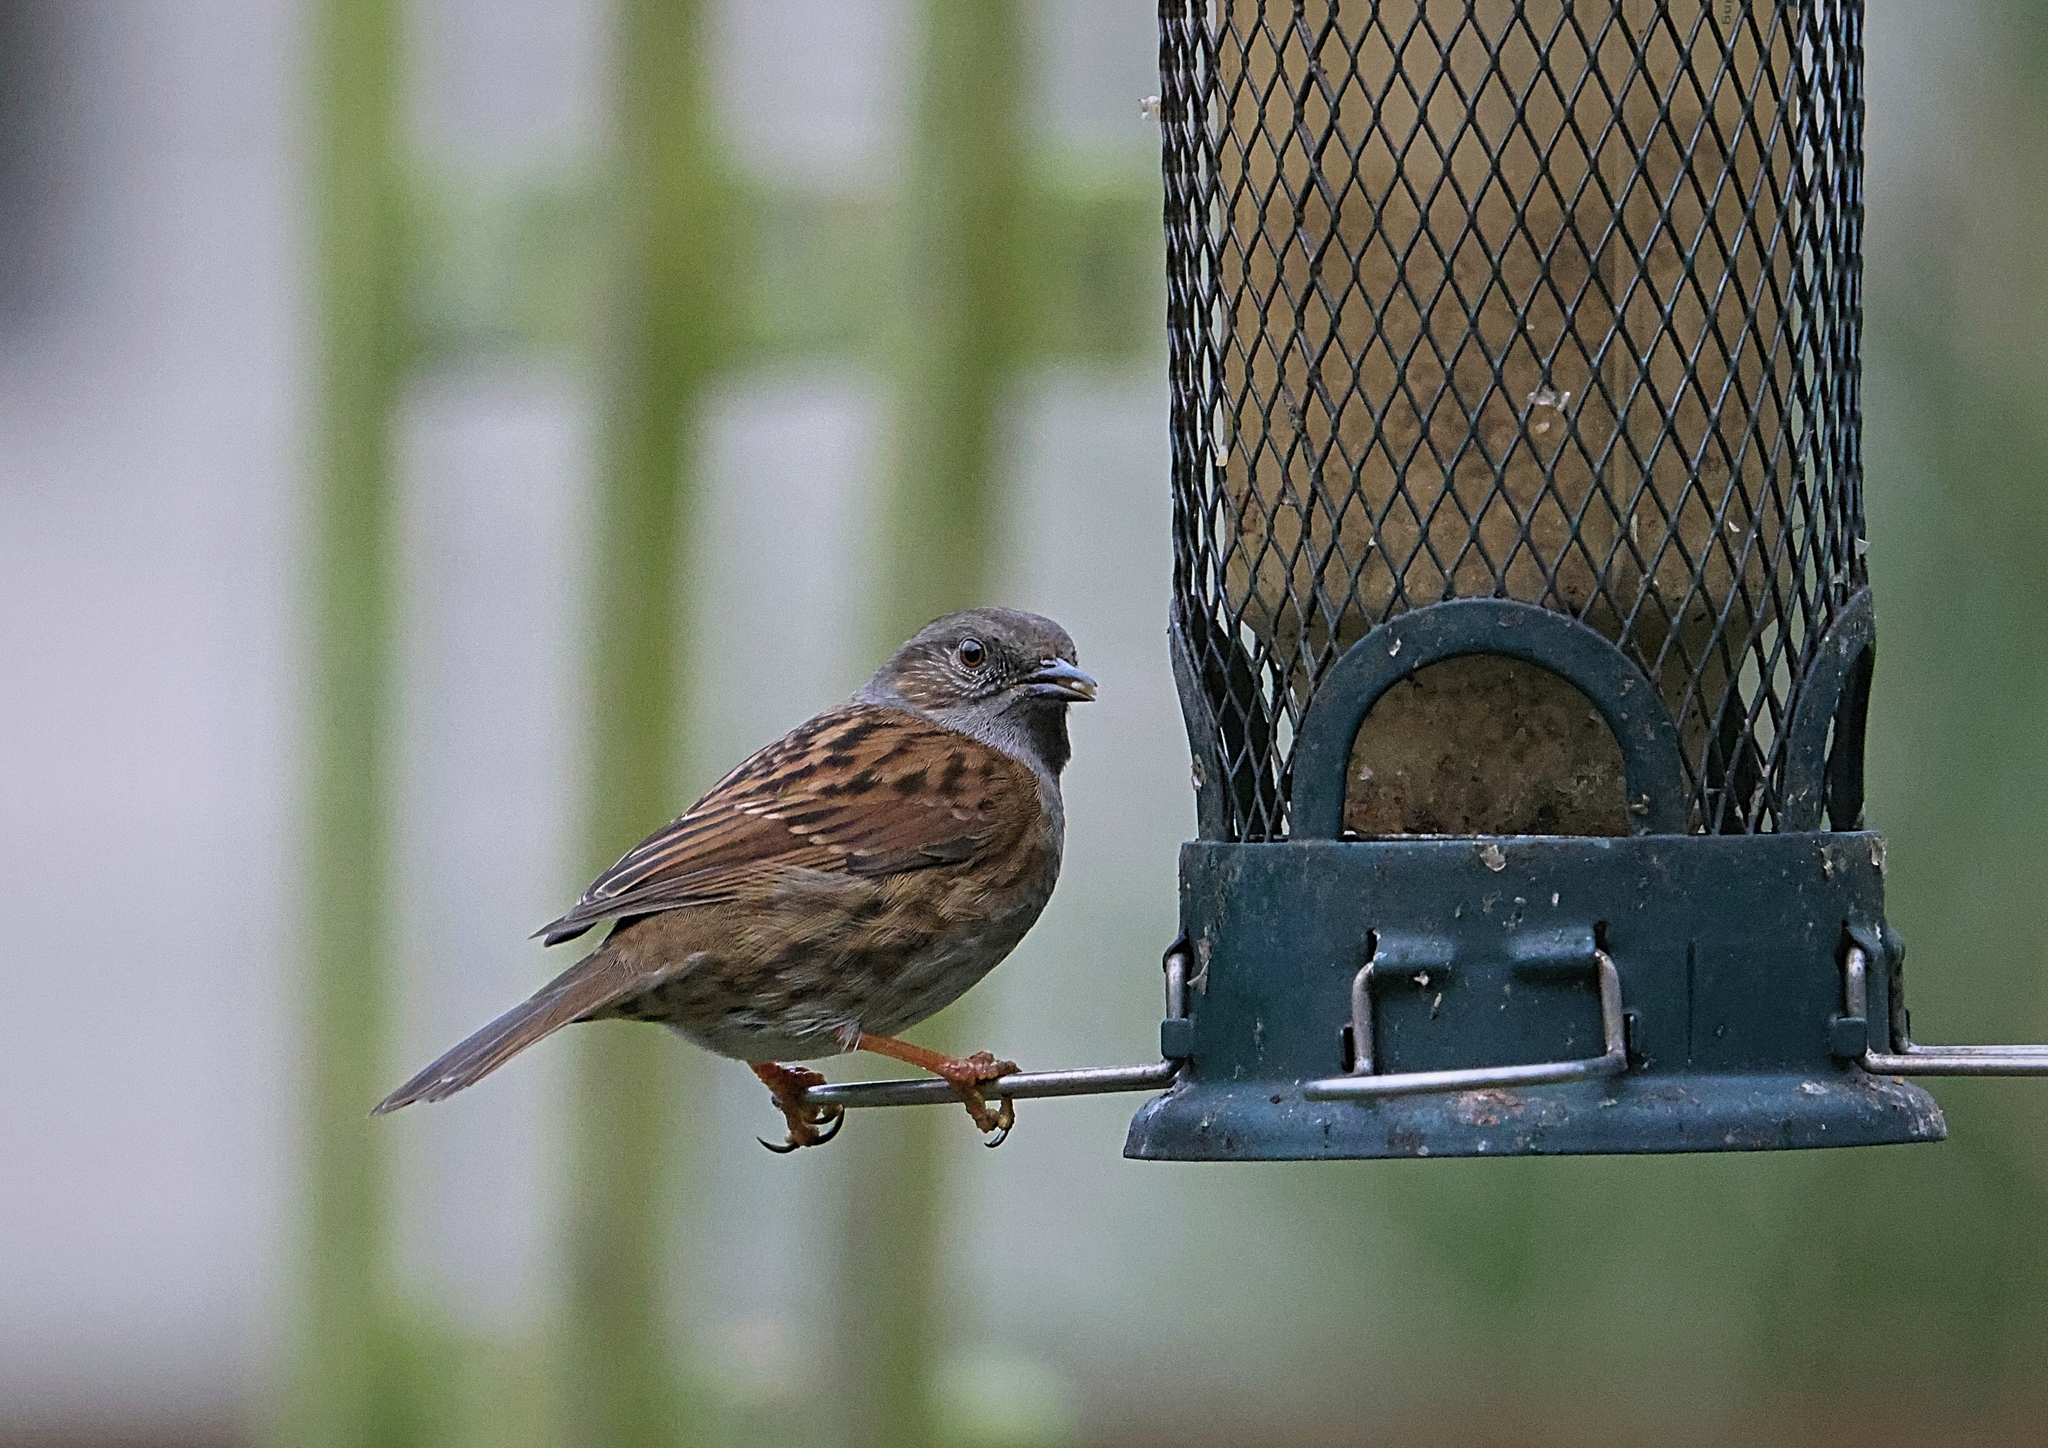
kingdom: Animalia
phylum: Chordata
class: Aves
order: Passeriformes
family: Prunellidae
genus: Prunella
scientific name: Prunella modularis
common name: Dunnock
